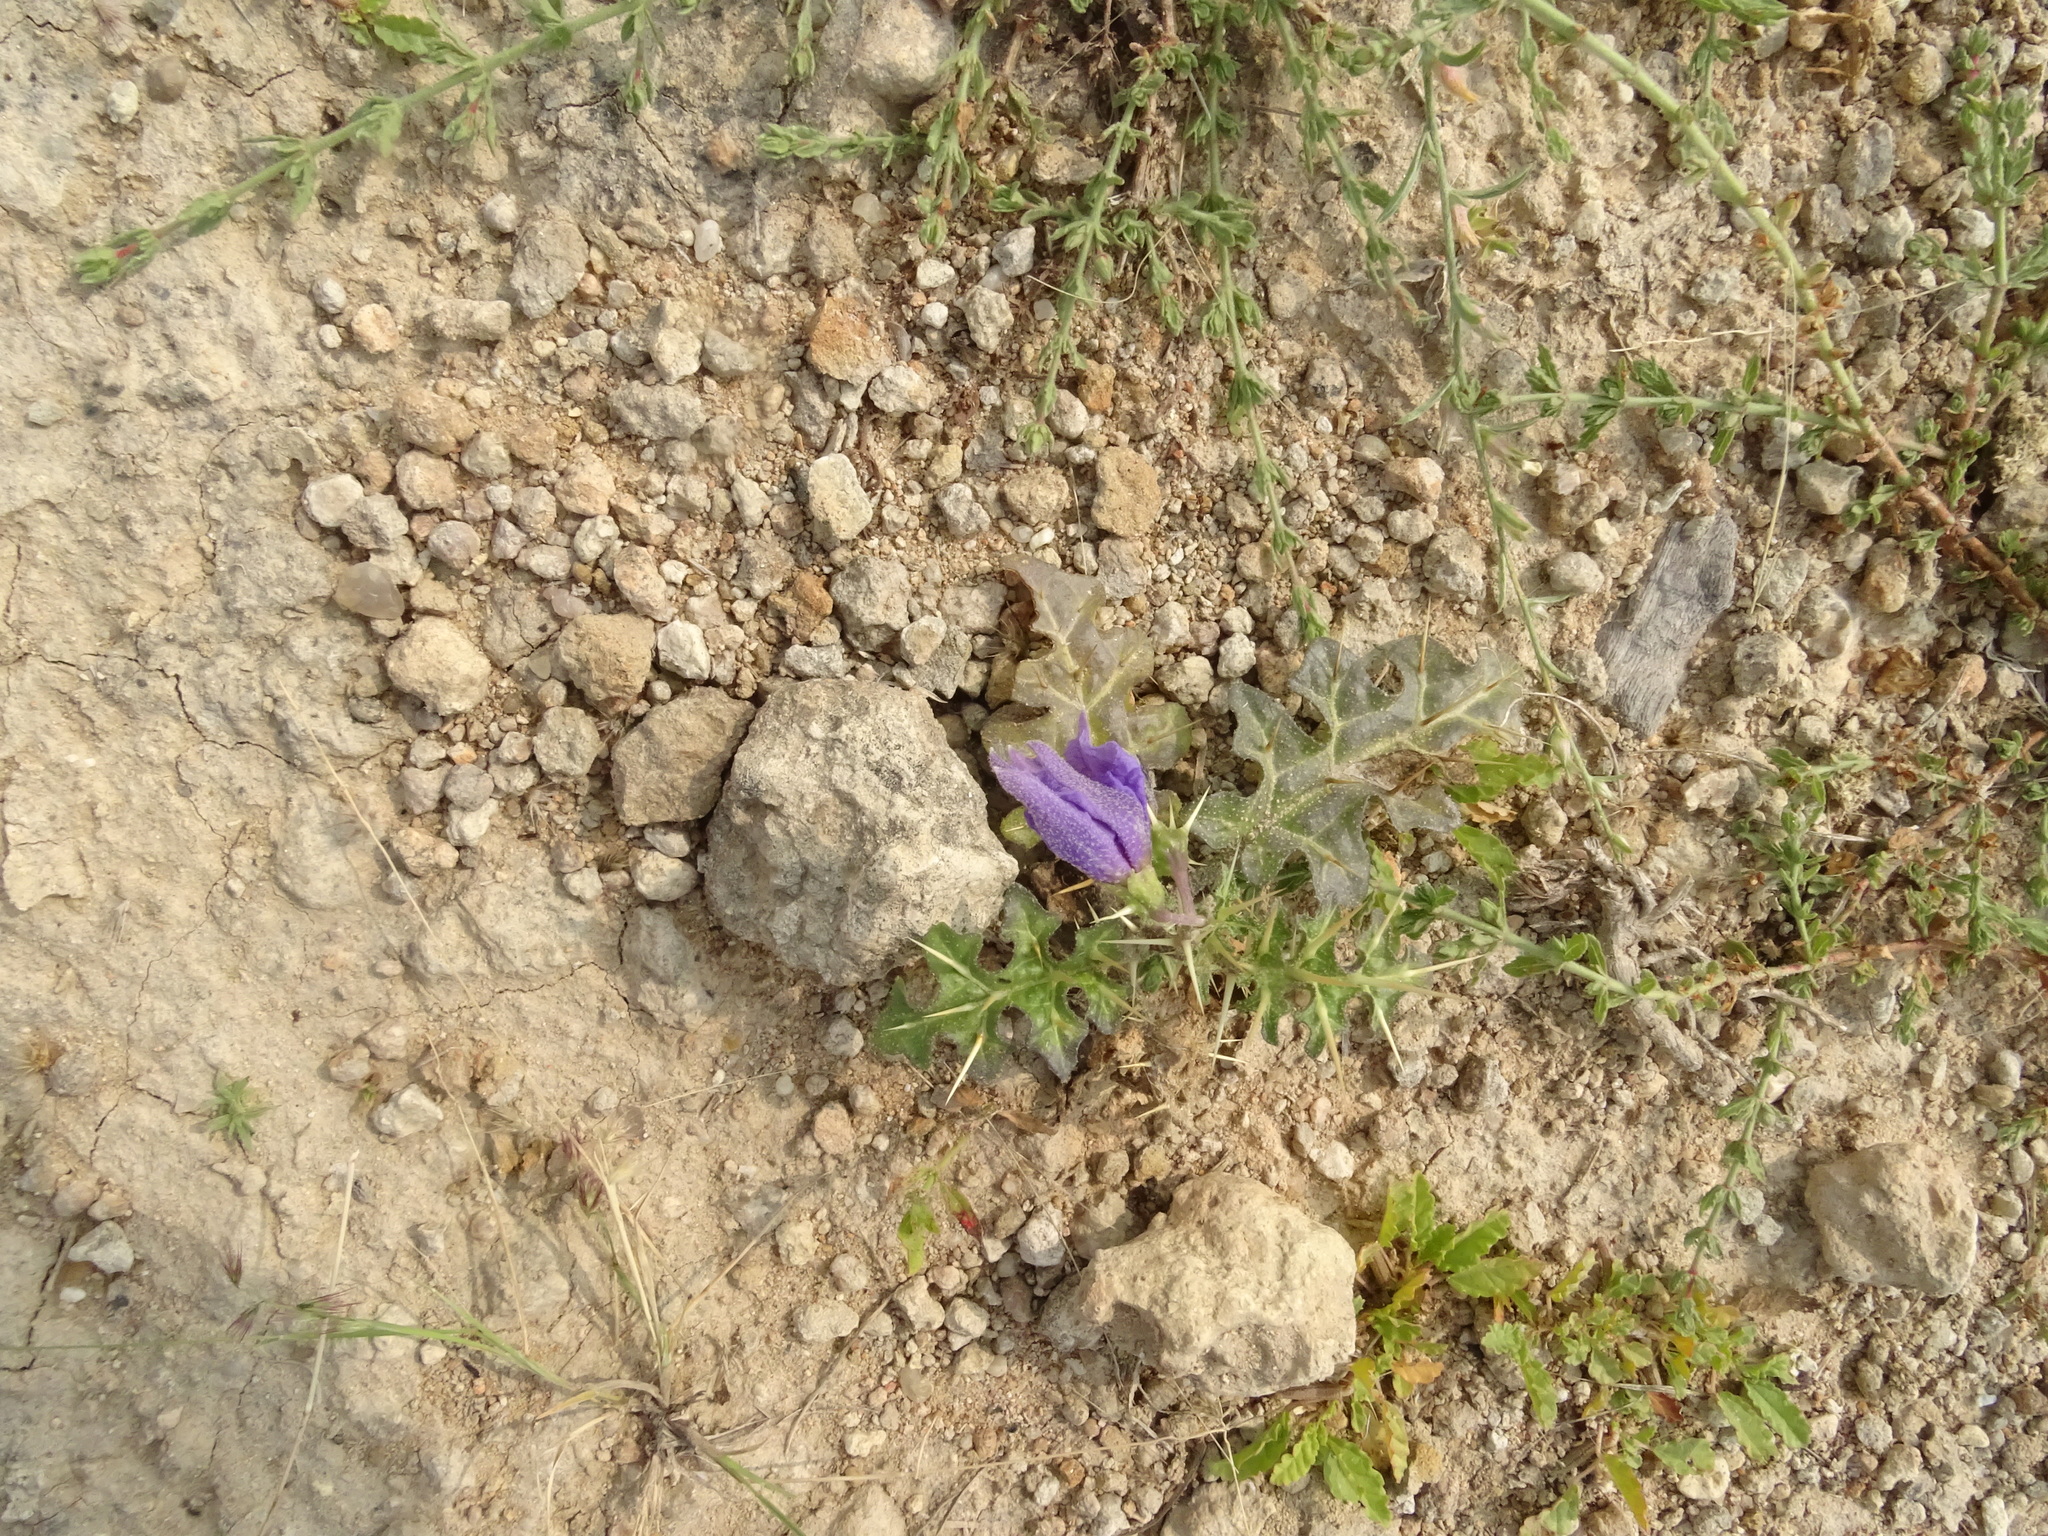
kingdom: Plantae
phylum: Tracheophyta
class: Magnoliopsida
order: Solanales
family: Solanaceae
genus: Solanum
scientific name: Solanum virginianum
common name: Surattense nightshade
